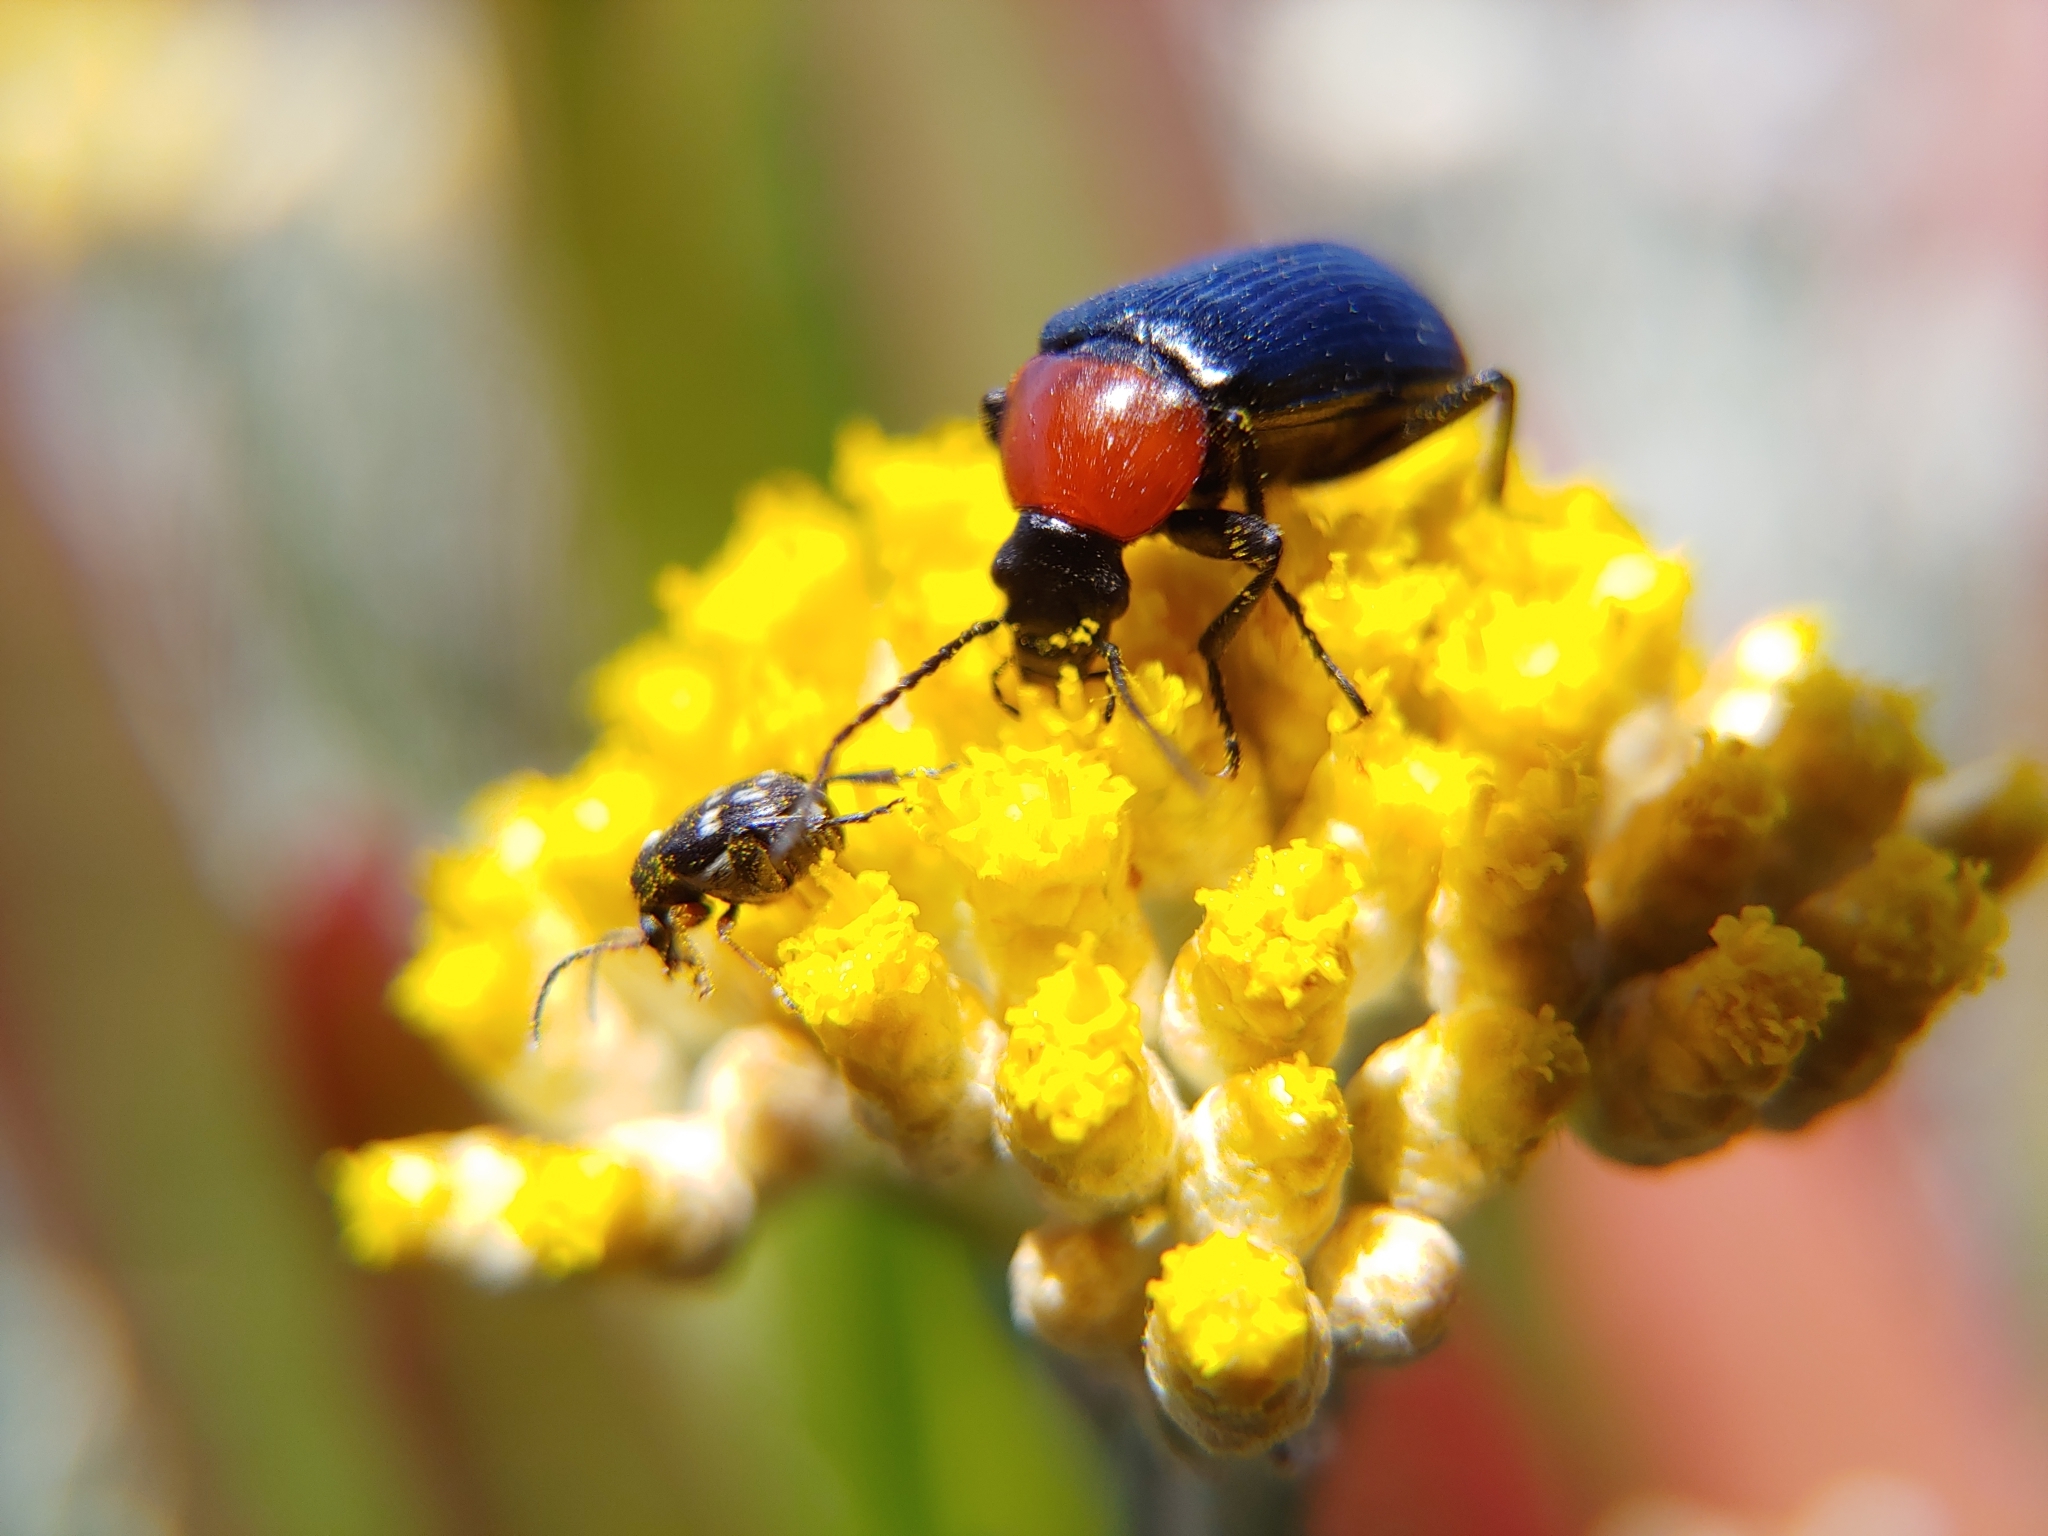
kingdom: Animalia
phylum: Arthropoda
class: Insecta
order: Coleoptera
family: Tenebrionidae
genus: Heliotaurus
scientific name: Heliotaurus ruficollis
